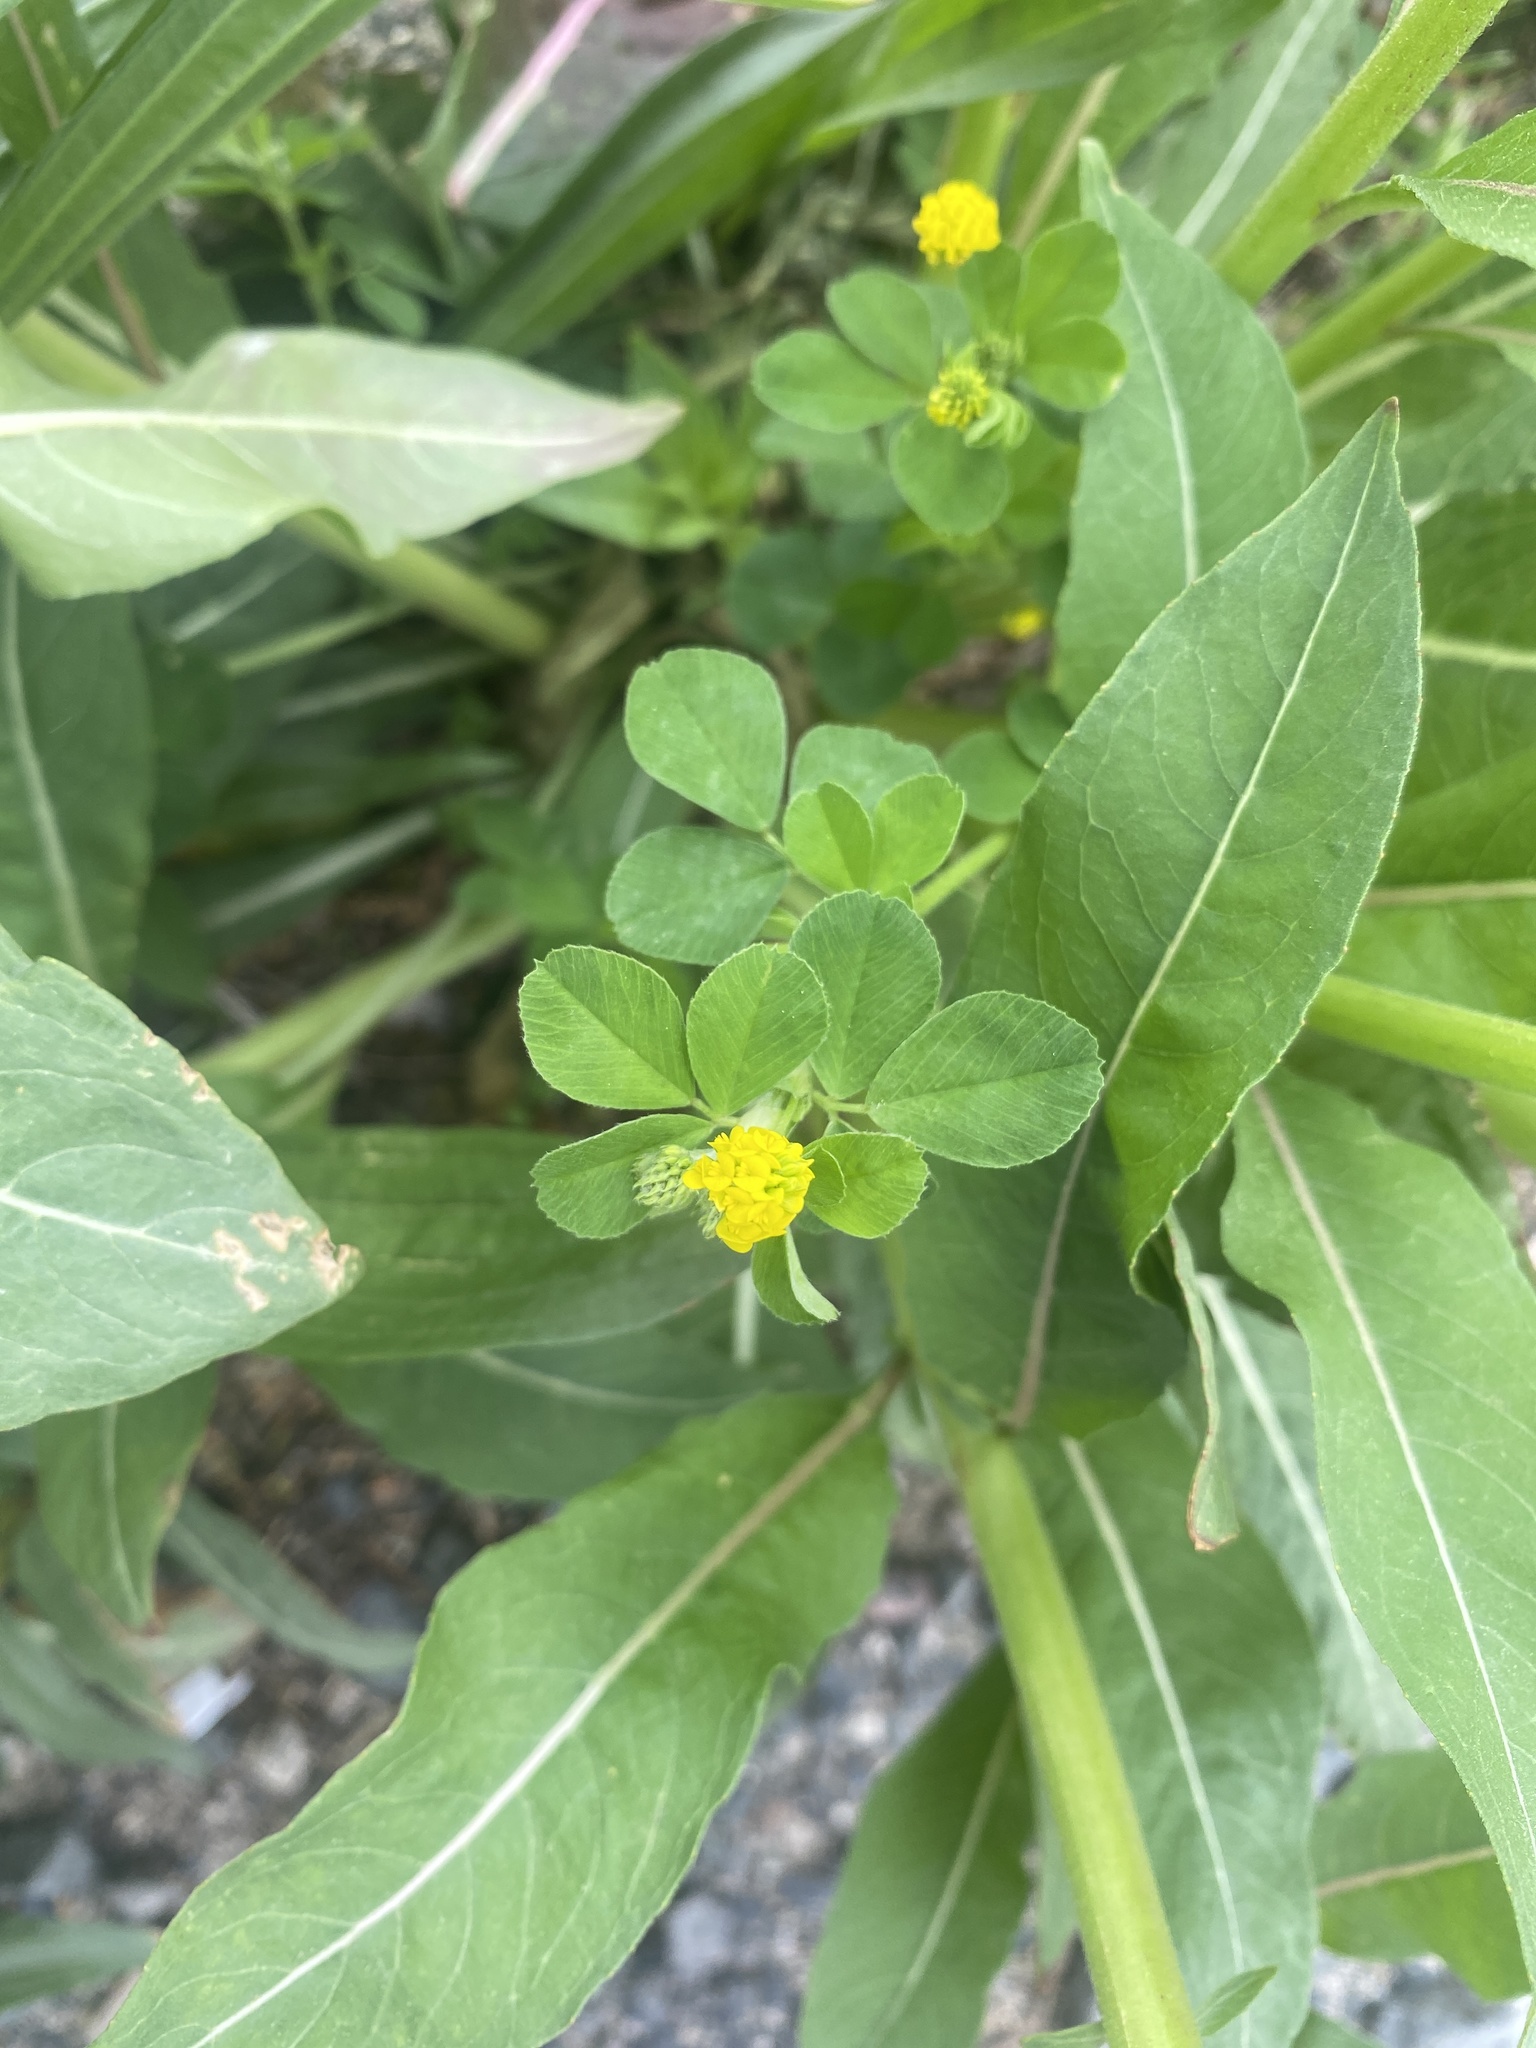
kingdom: Plantae
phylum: Tracheophyta
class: Magnoliopsida
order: Fabales
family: Fabaceae
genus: Medicago
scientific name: Medicago lupulina
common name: Black medick
